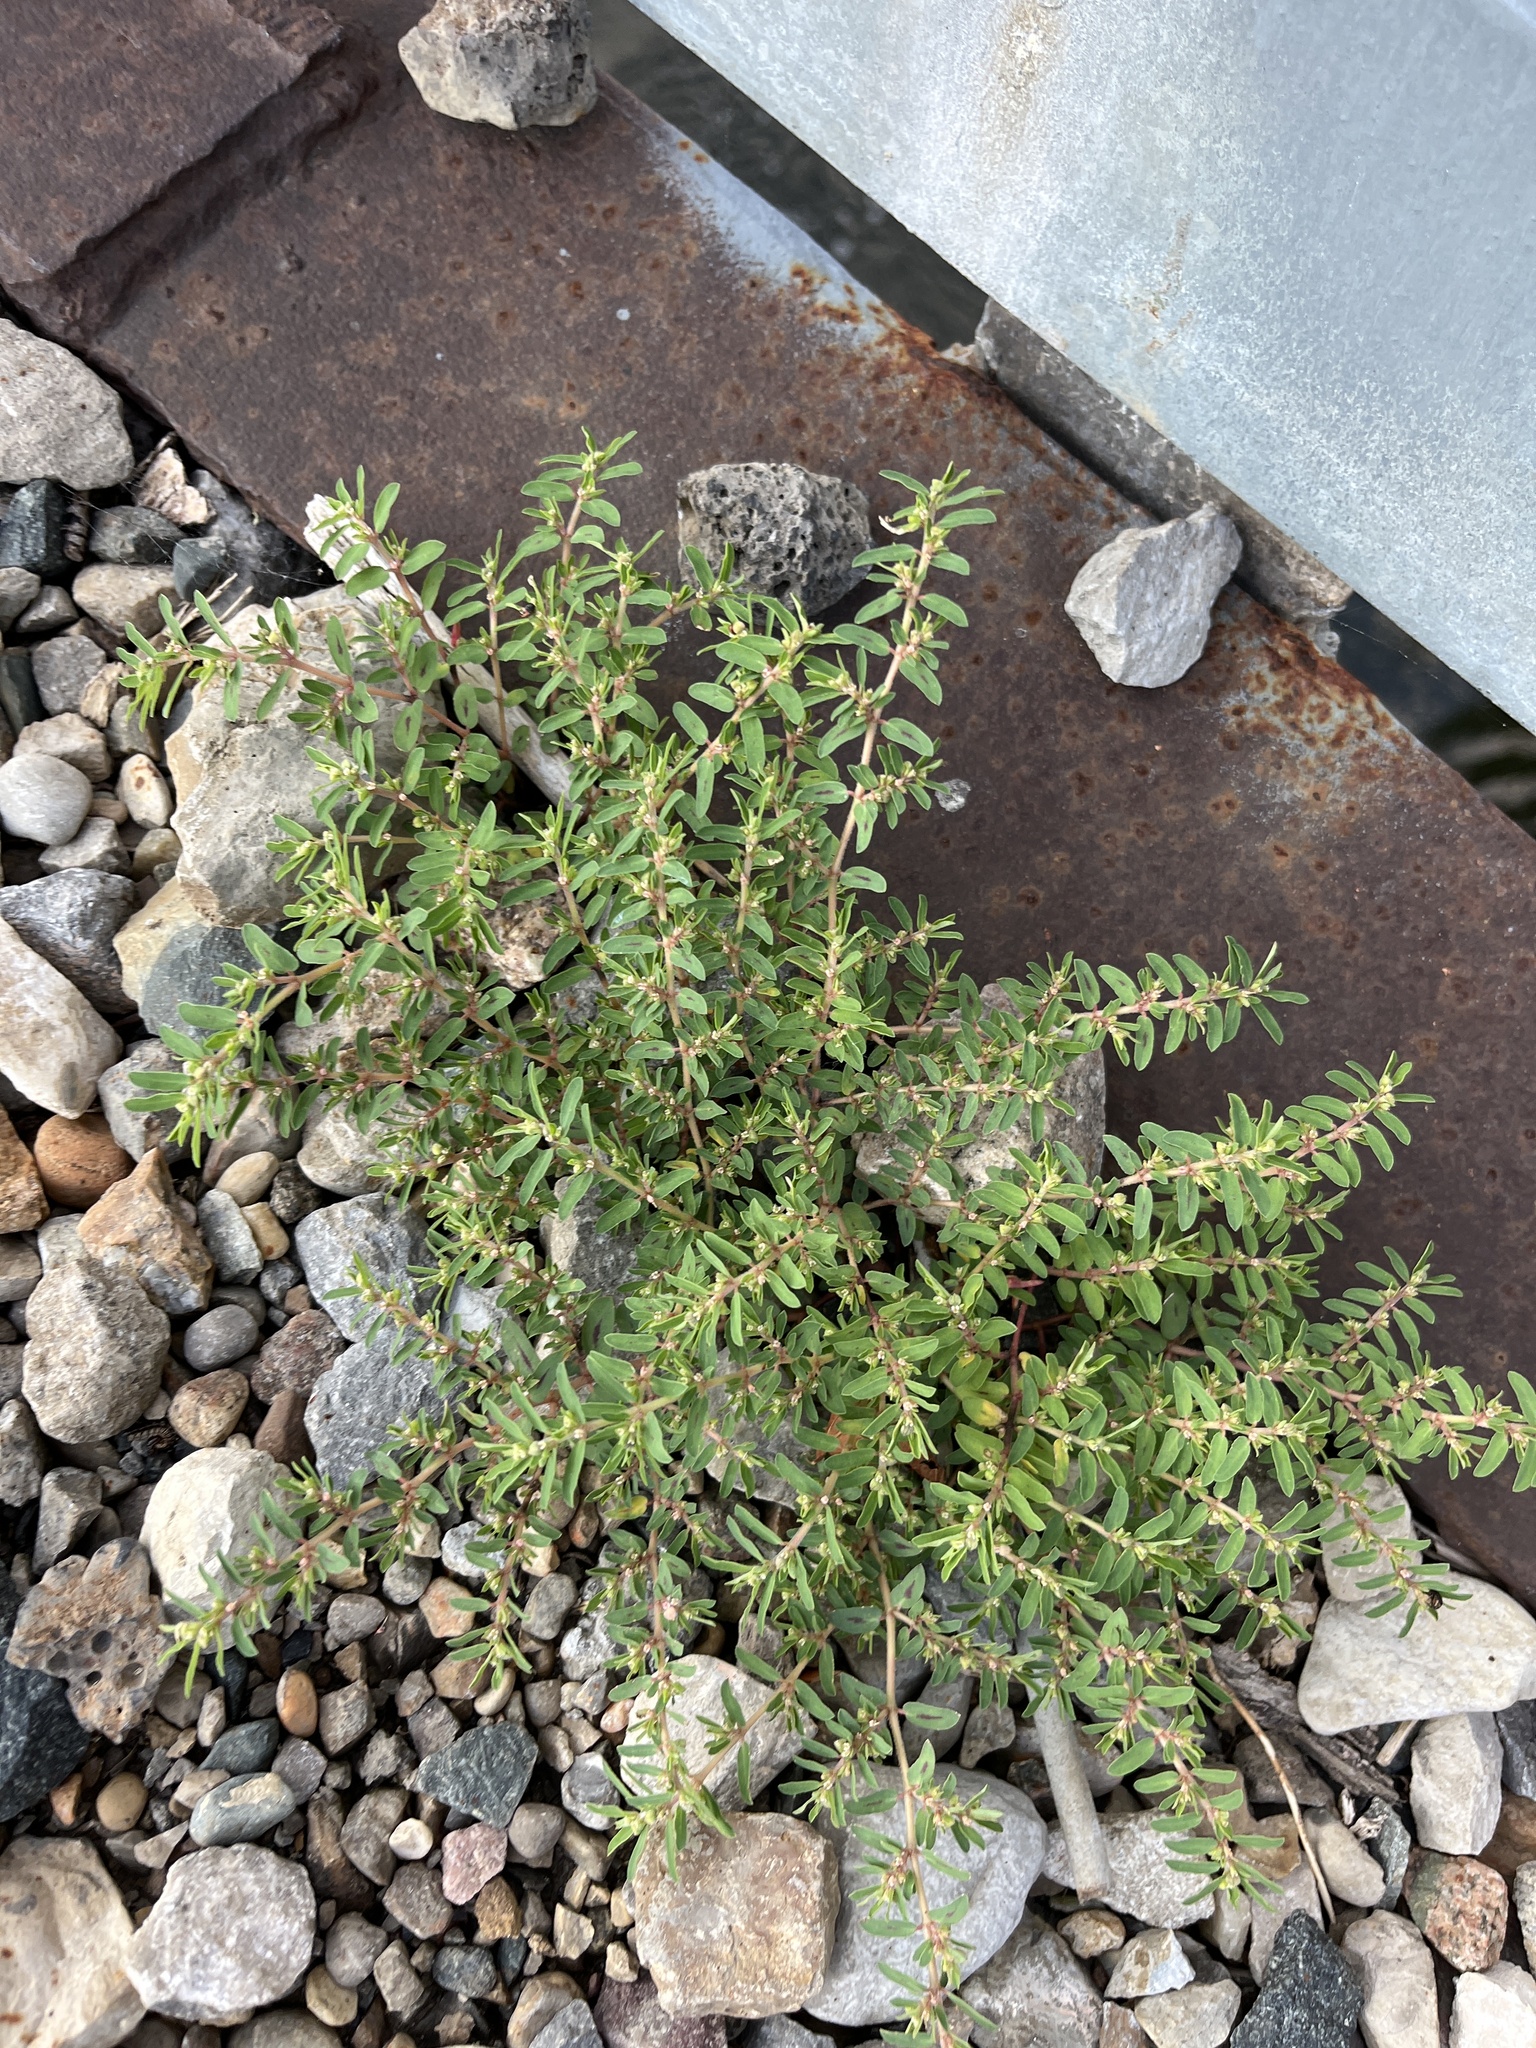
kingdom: Plantae
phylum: Tracheophyta
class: Magnoliopsida
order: Malpighiales
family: Euphorbiaceae
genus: Euphorbia
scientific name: Euphorbia maculata
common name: Spotted spurge
